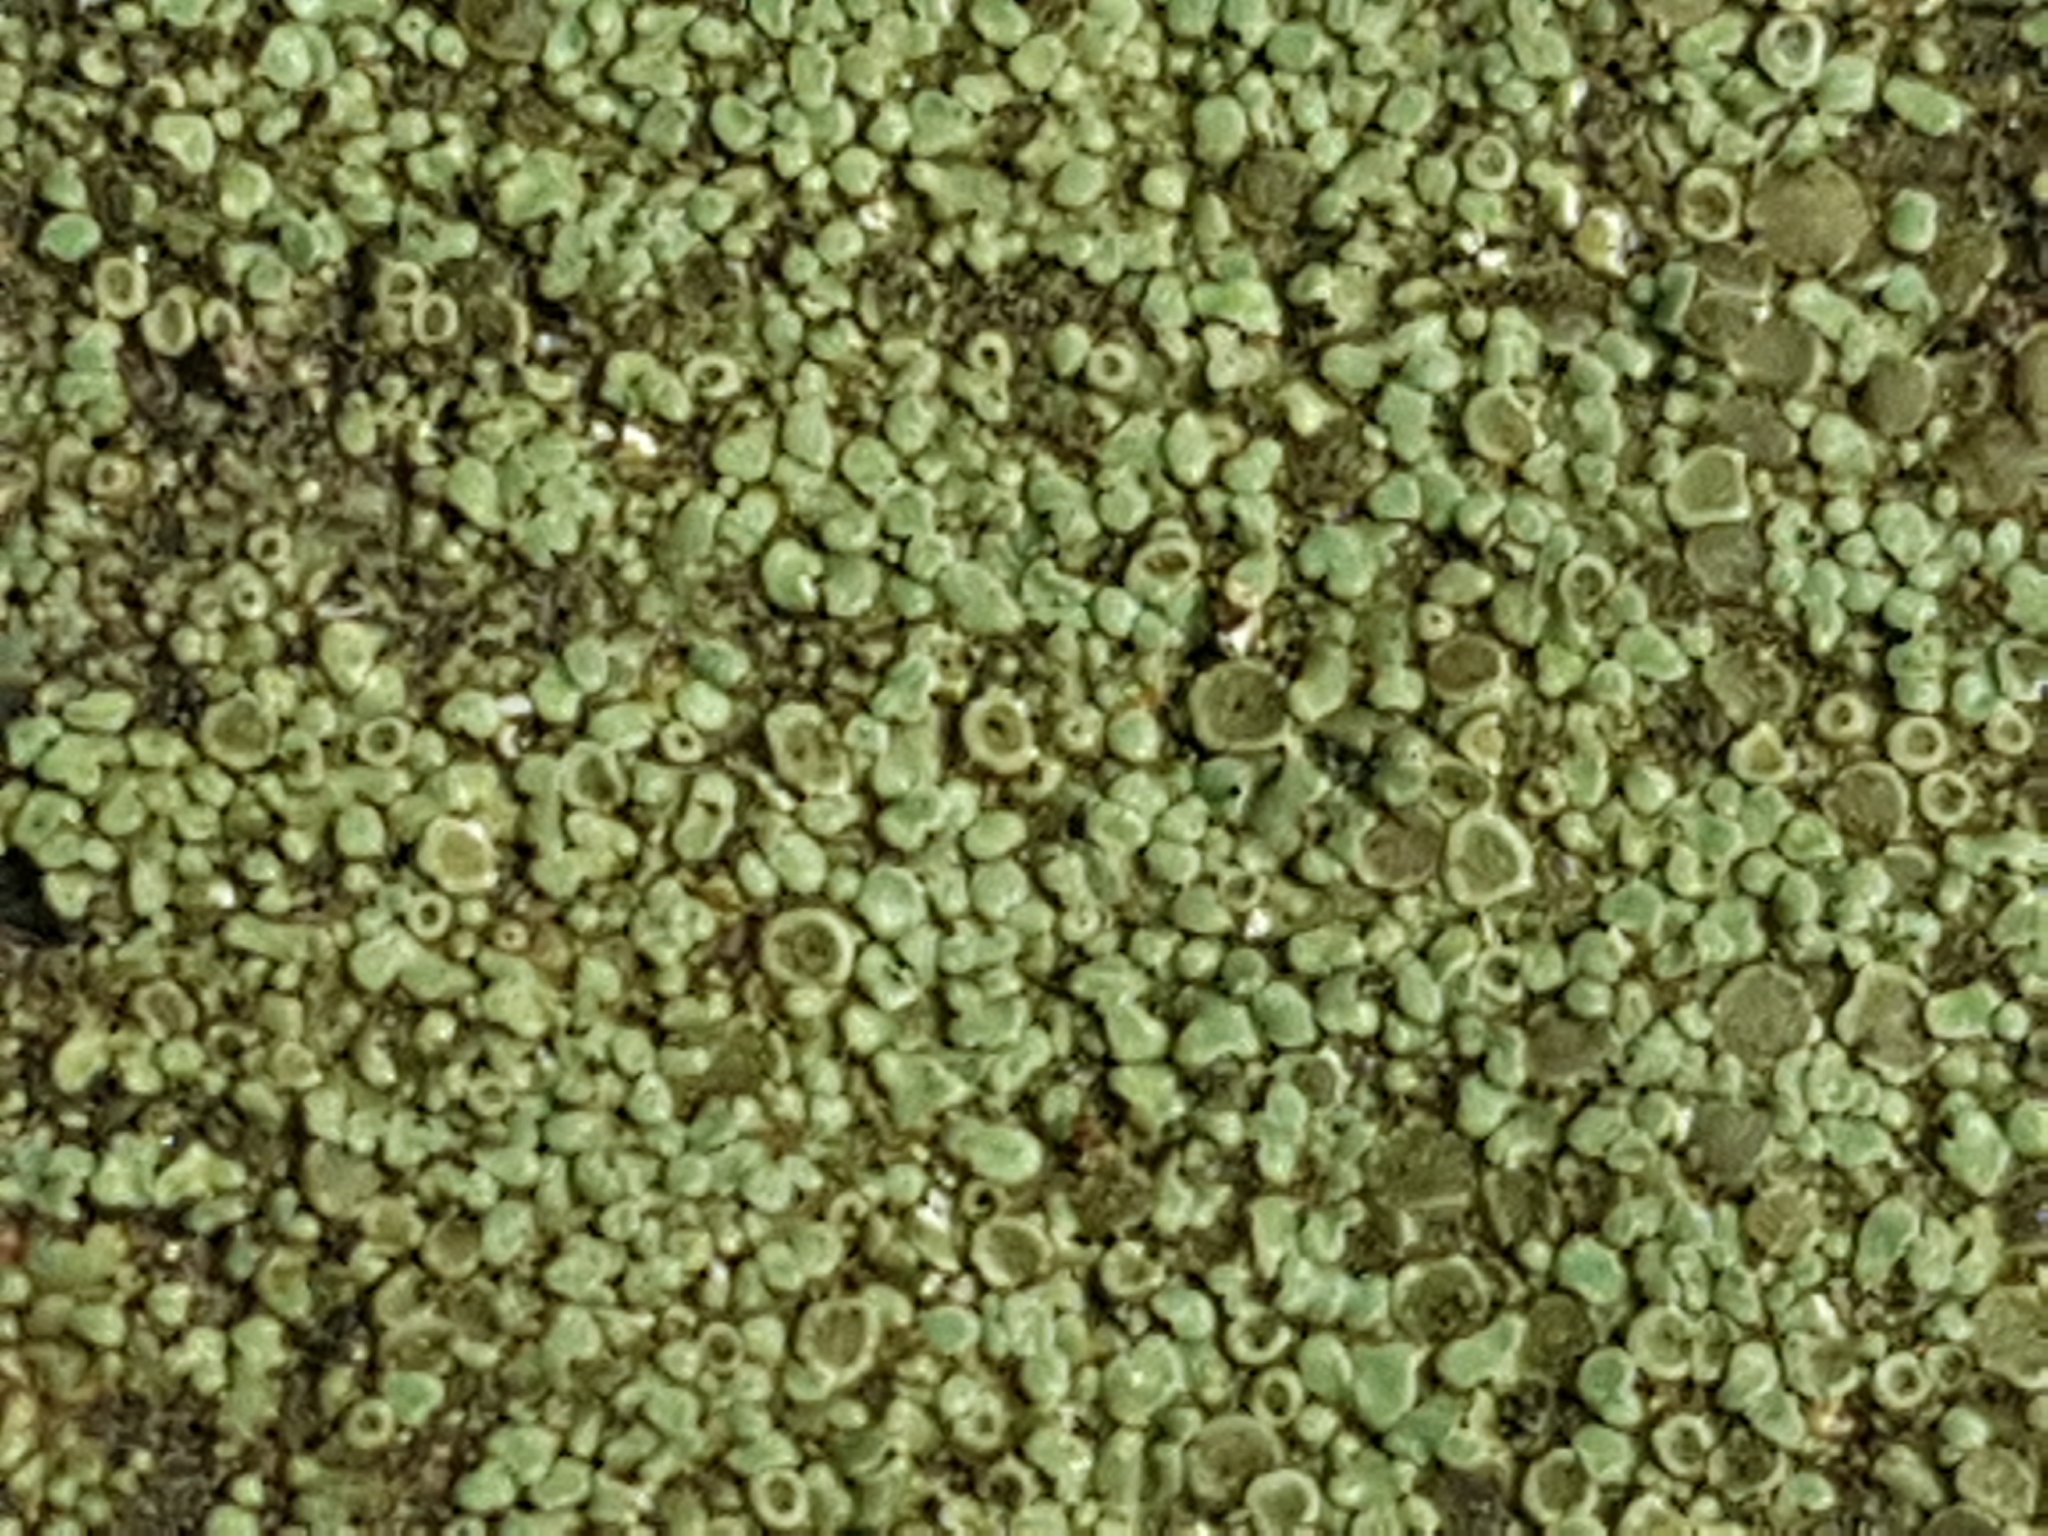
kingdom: Fungi
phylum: Ascomycota
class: Lecanoromycetes
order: Lecanorales
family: Lecanoraceae
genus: Protoparmeliopsis
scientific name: Protoparmeliopsis muralis
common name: Stonewall rim lichen
